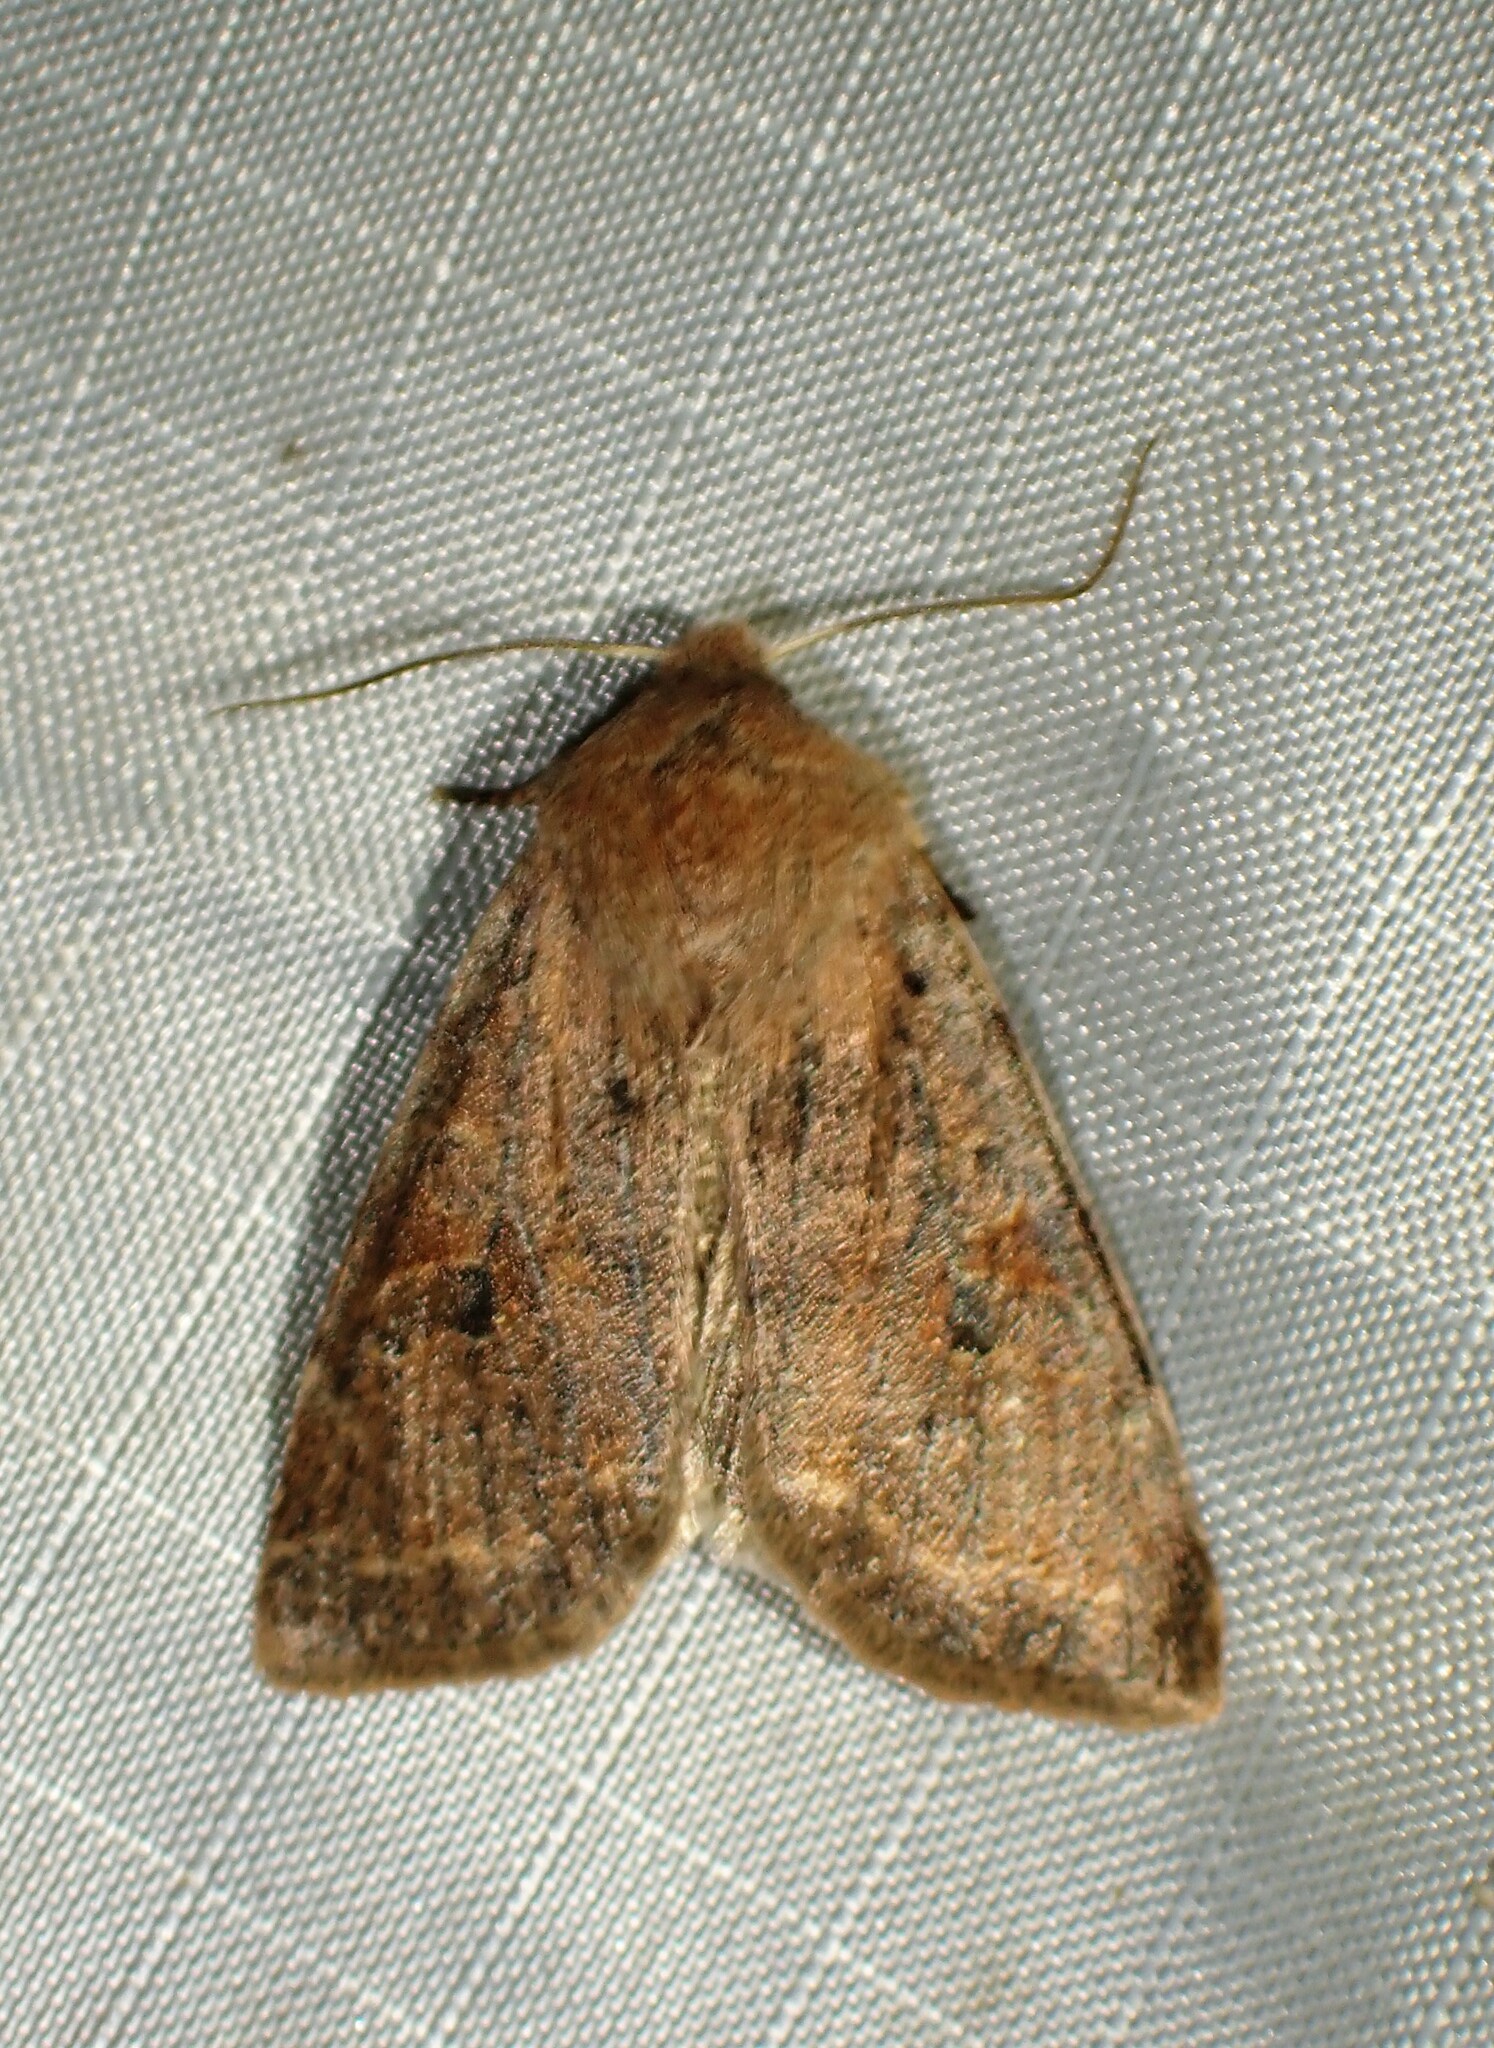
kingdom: Animalia
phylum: Arthropoda
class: Insecta
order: Lepidoptera
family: Noctuidae
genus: Orthosia
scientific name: Orthosia hibisci
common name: Green fruitworm
